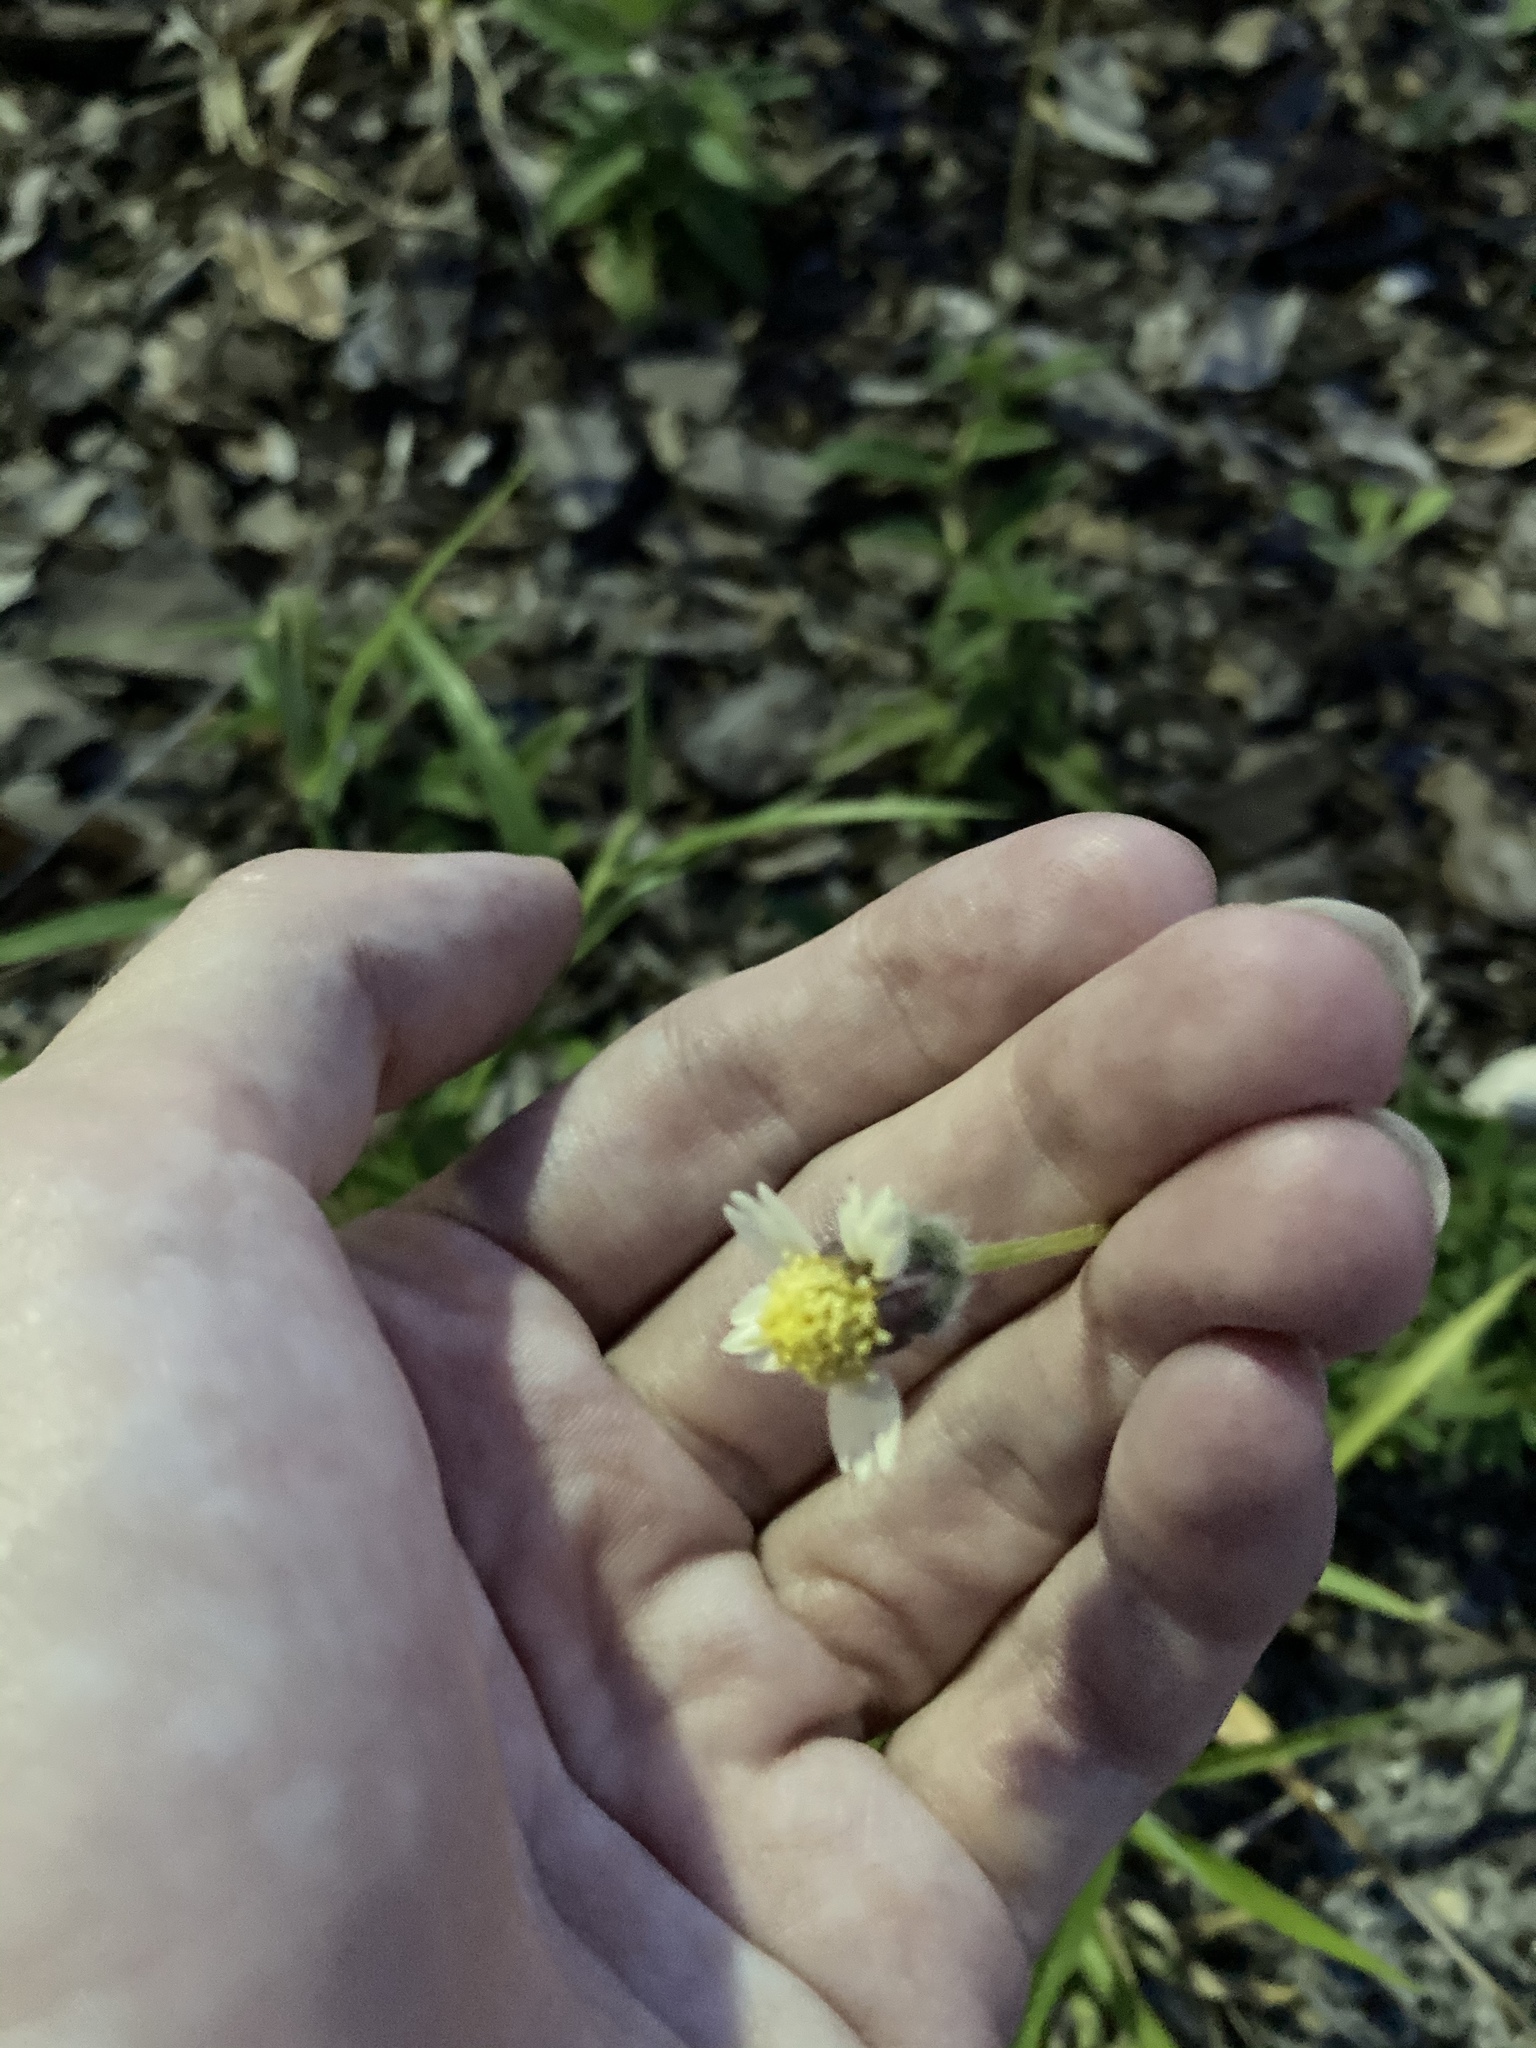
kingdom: Plantae
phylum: Tracheophyta
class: Magnoliopsida
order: Asterales
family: Asteraceae
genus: Tridax
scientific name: Tridax procumbens
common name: Coatbuttons
